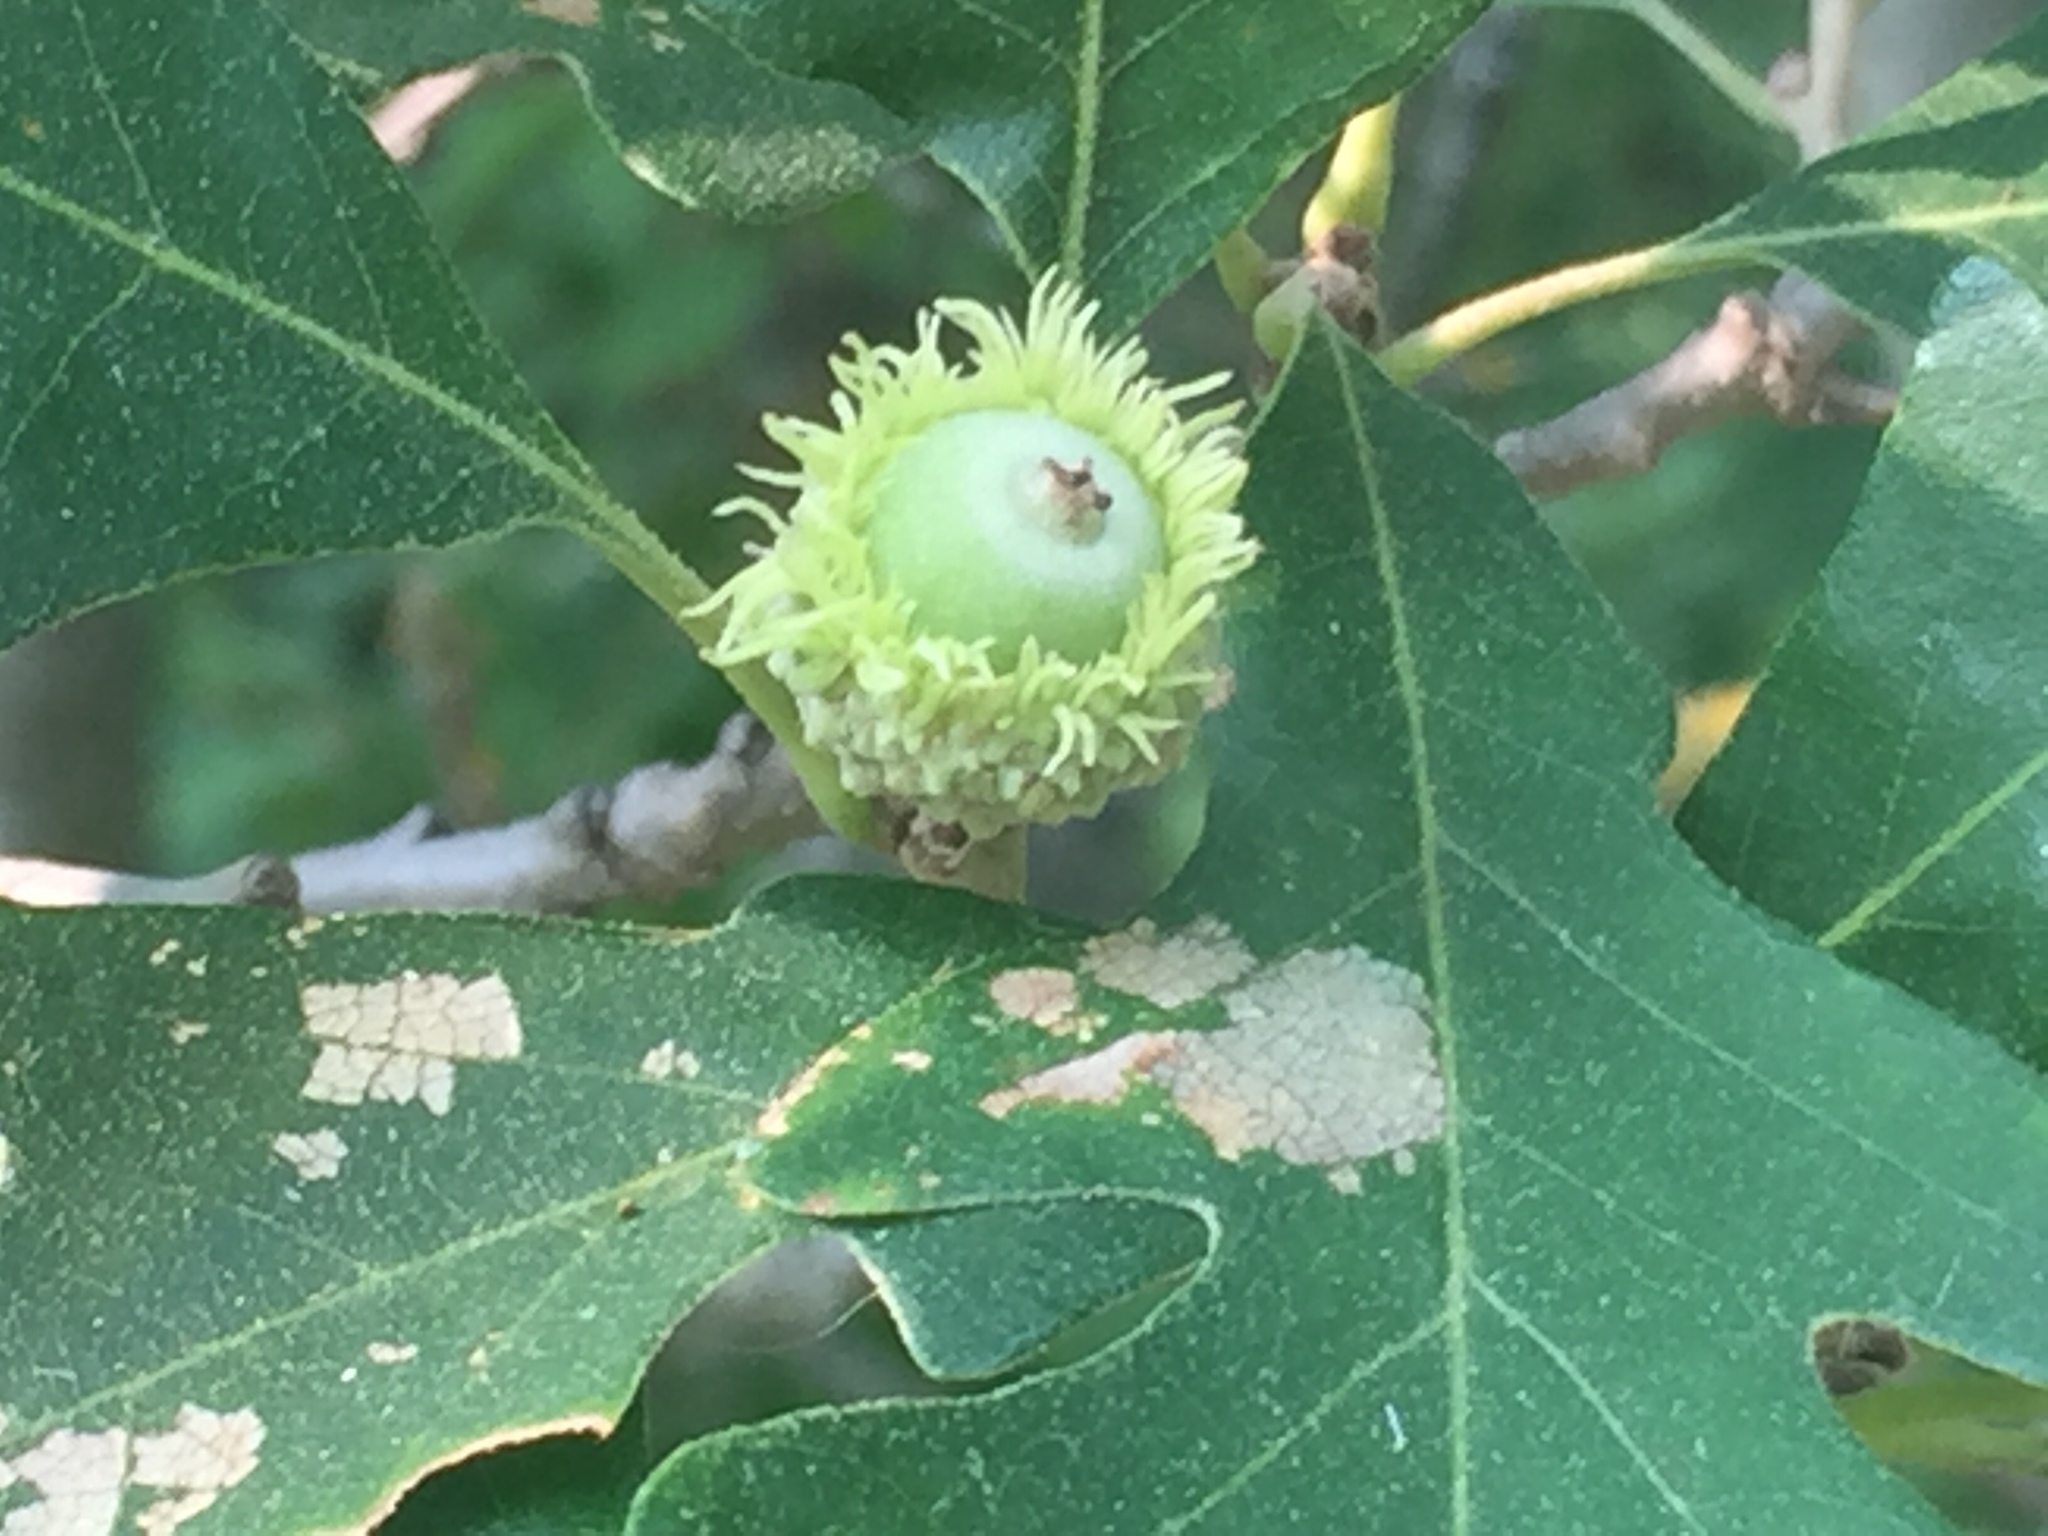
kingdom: Plantae
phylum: Tracheophyta
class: Magnoliopsida
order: Fagales
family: Fagaceae
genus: Quercus
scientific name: Quercus macrocarpa
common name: Bur oak
